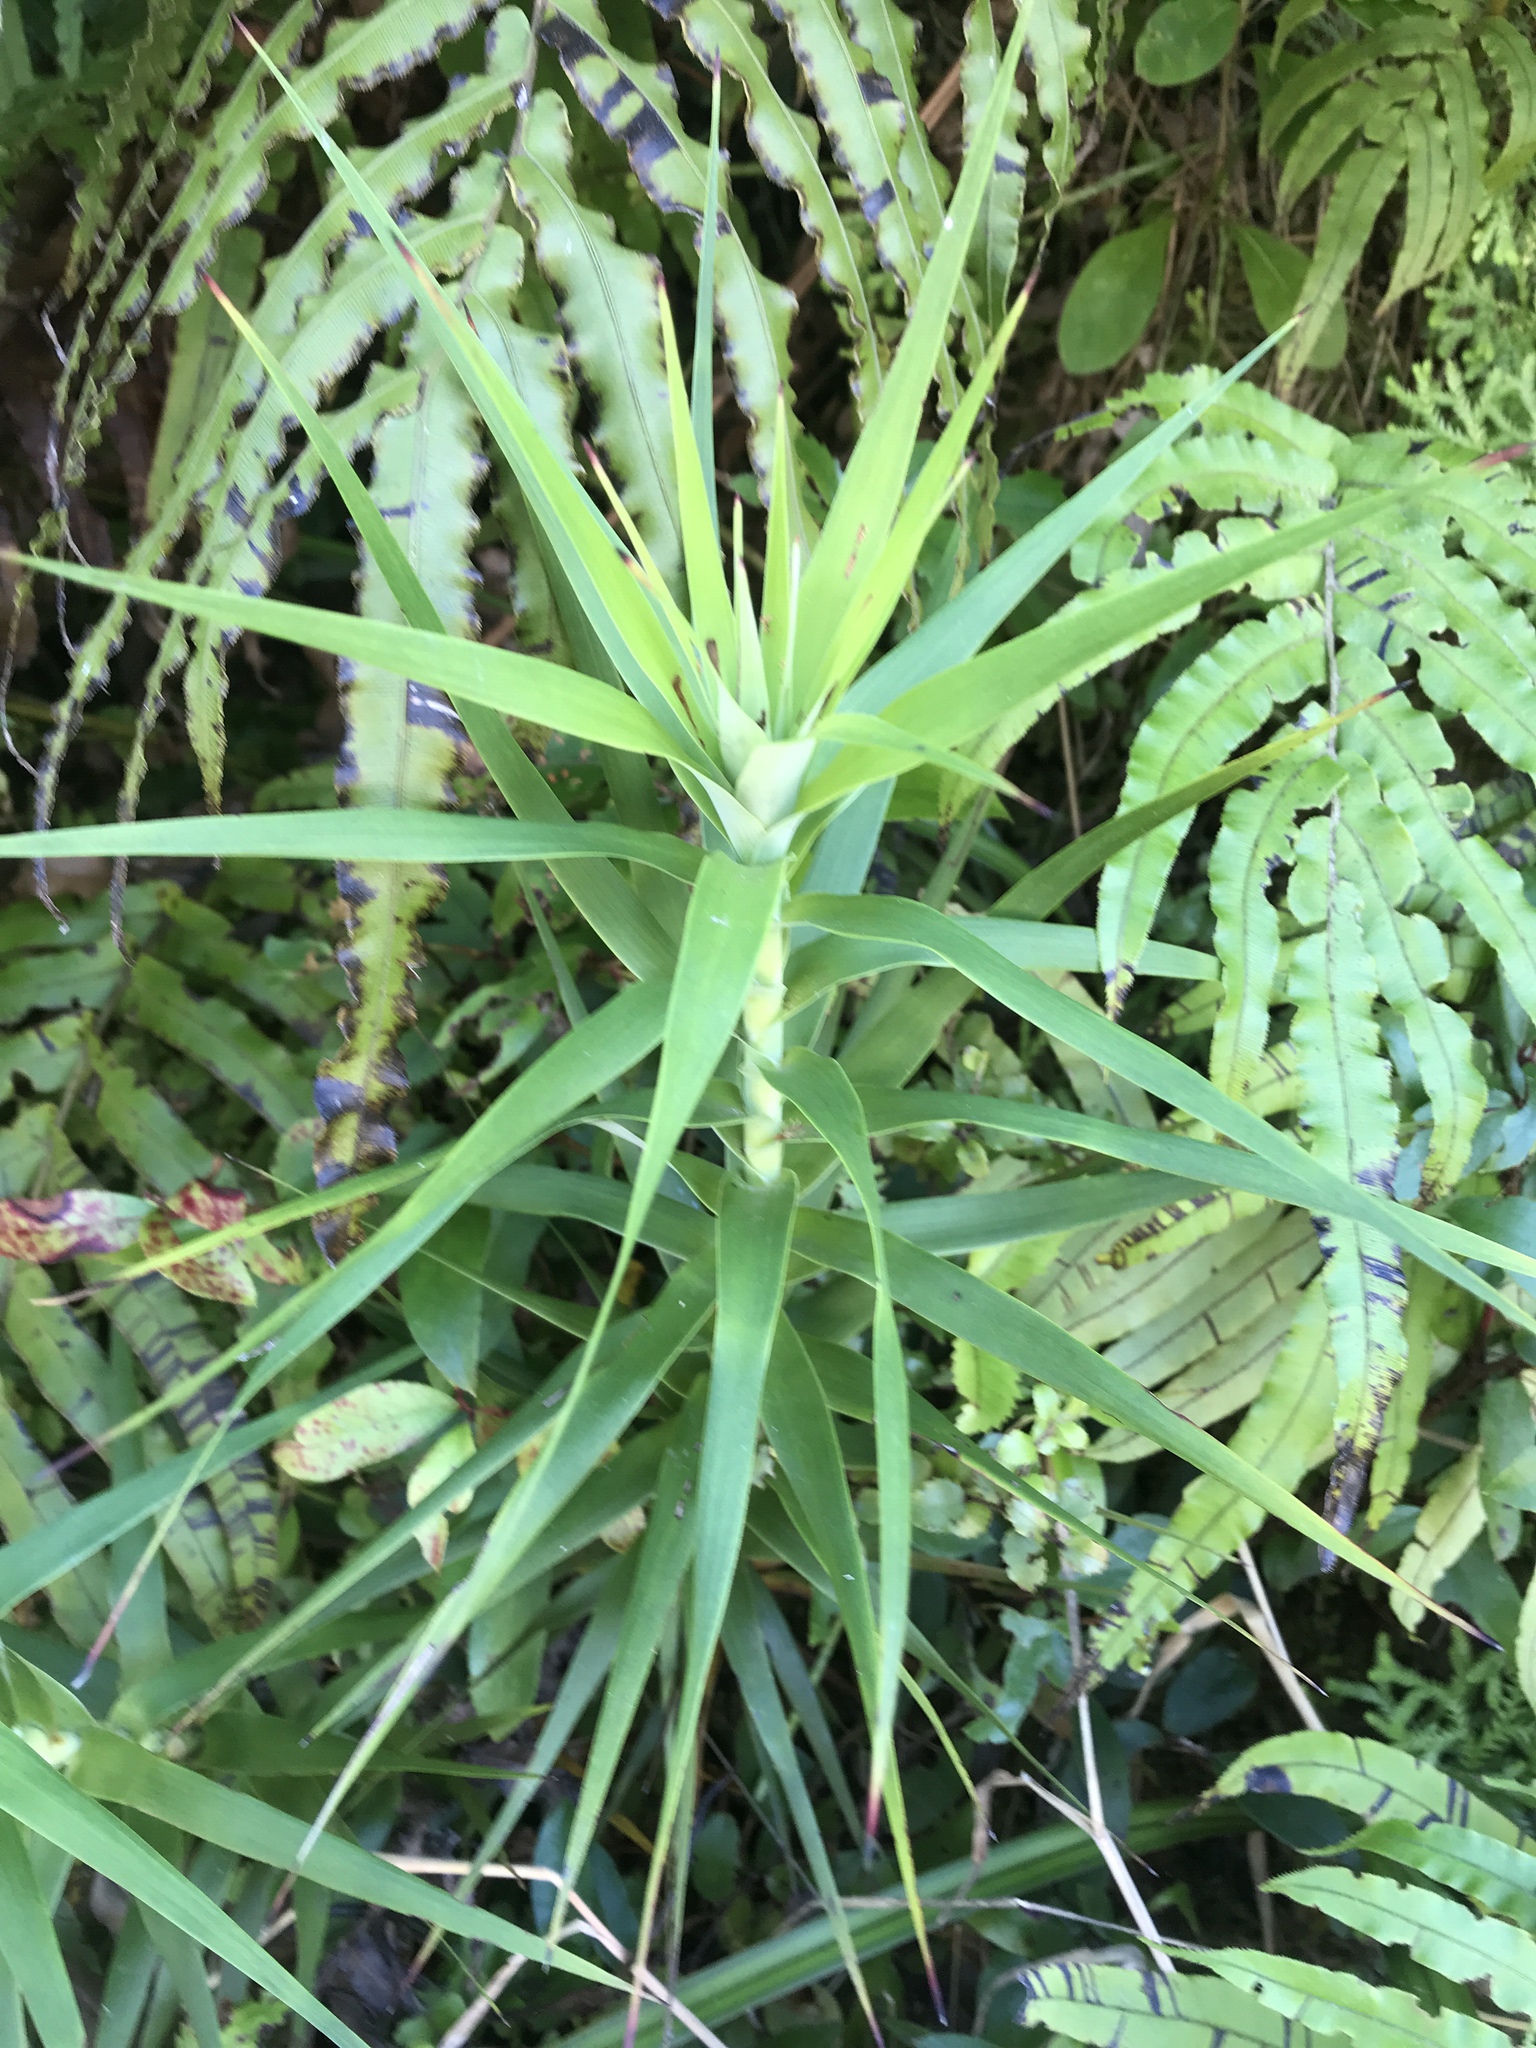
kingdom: Plantae
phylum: Tracheophyta
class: Magnoliopsida
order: Ericales
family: Ericaceae
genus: Dracophyllum
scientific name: Dracophyllum strictum
